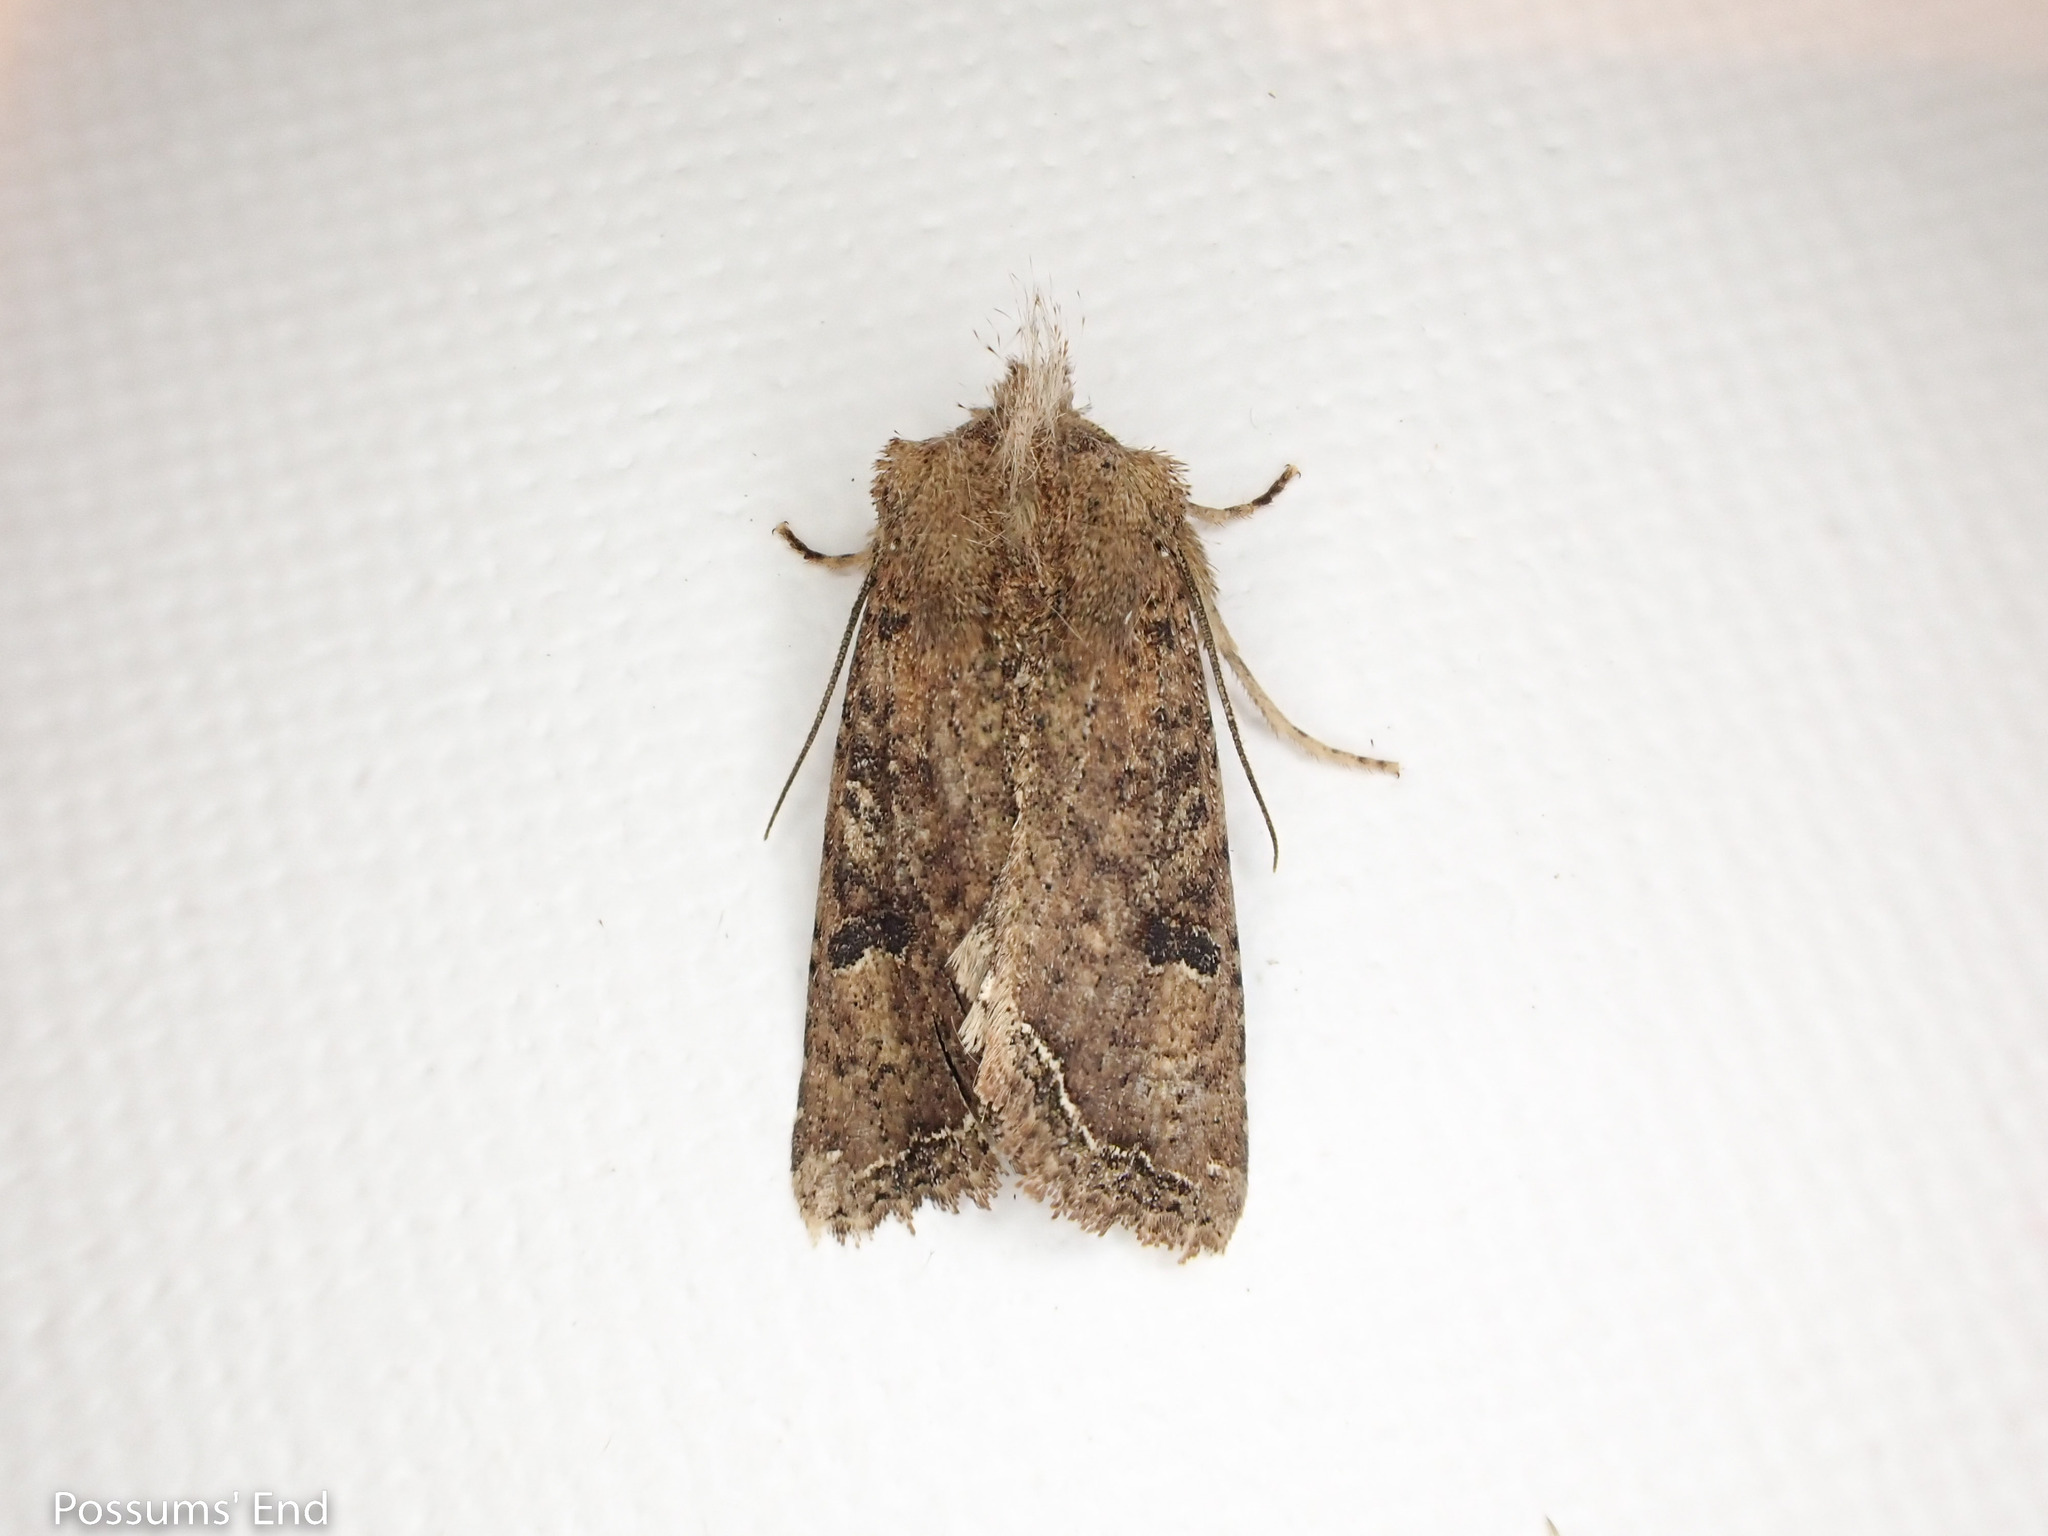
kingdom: Animalia
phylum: Arthropoda
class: Insecta
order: Lepidoptera
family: Noctuidae
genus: Meterana
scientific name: Meterana inchoata
